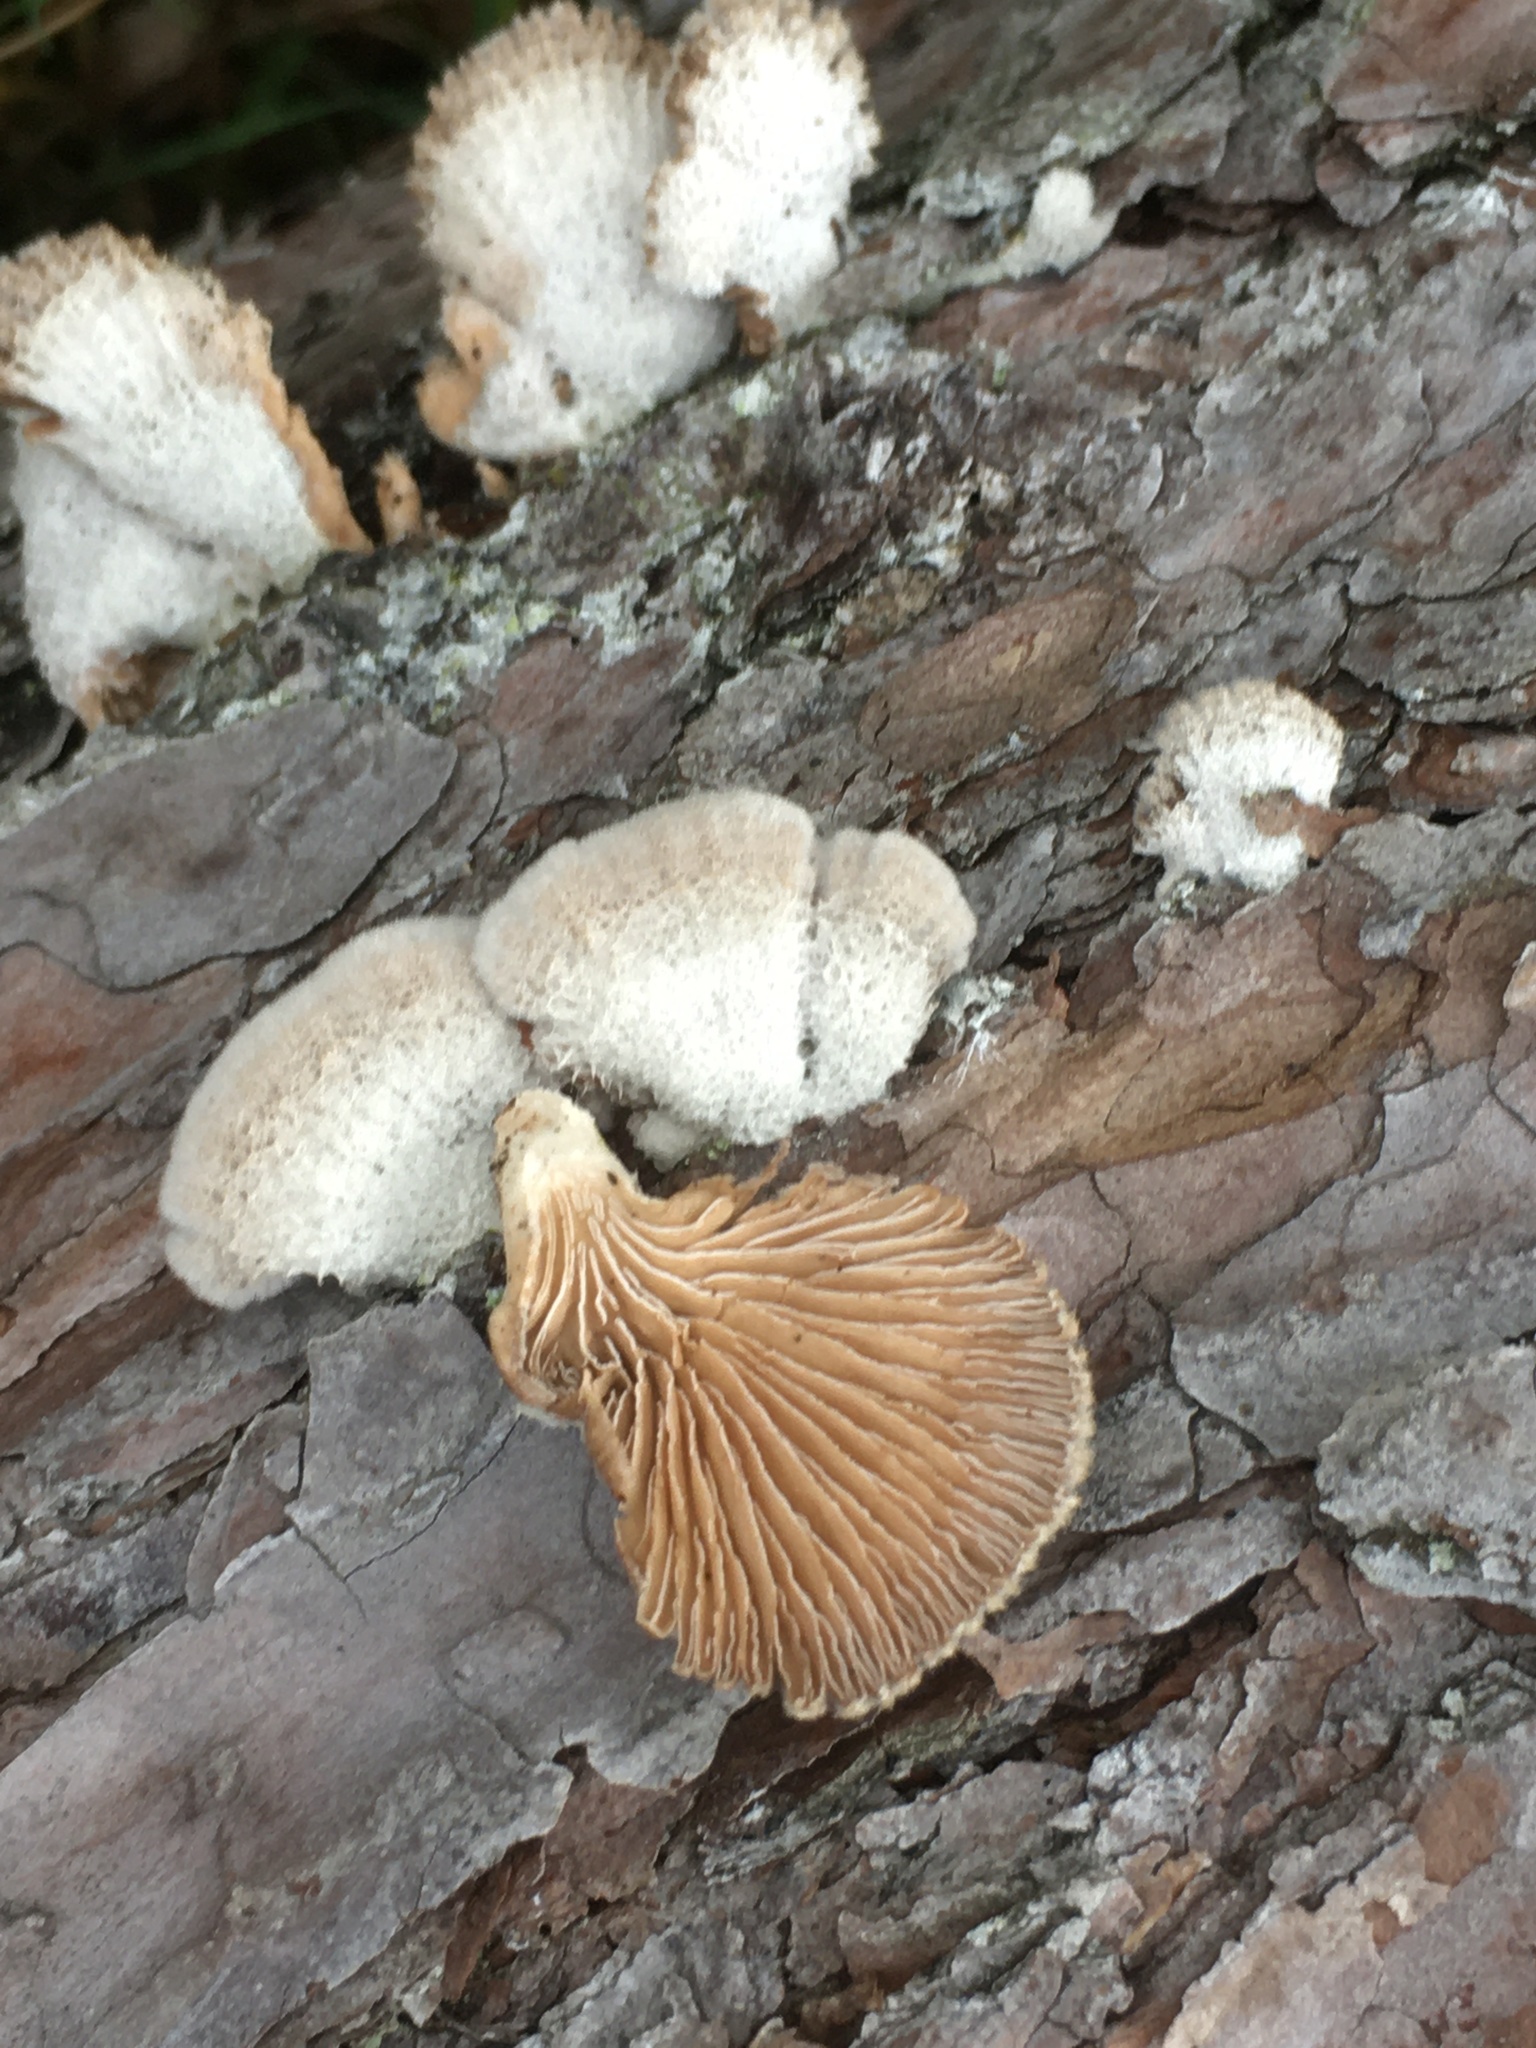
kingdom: Fungi
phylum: Basidiomycota
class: Agaricomycetes
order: Agaricales
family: Schizophyllaceae
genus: Schizophyllum
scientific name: Schizophyllum commune
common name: Common porecrust
